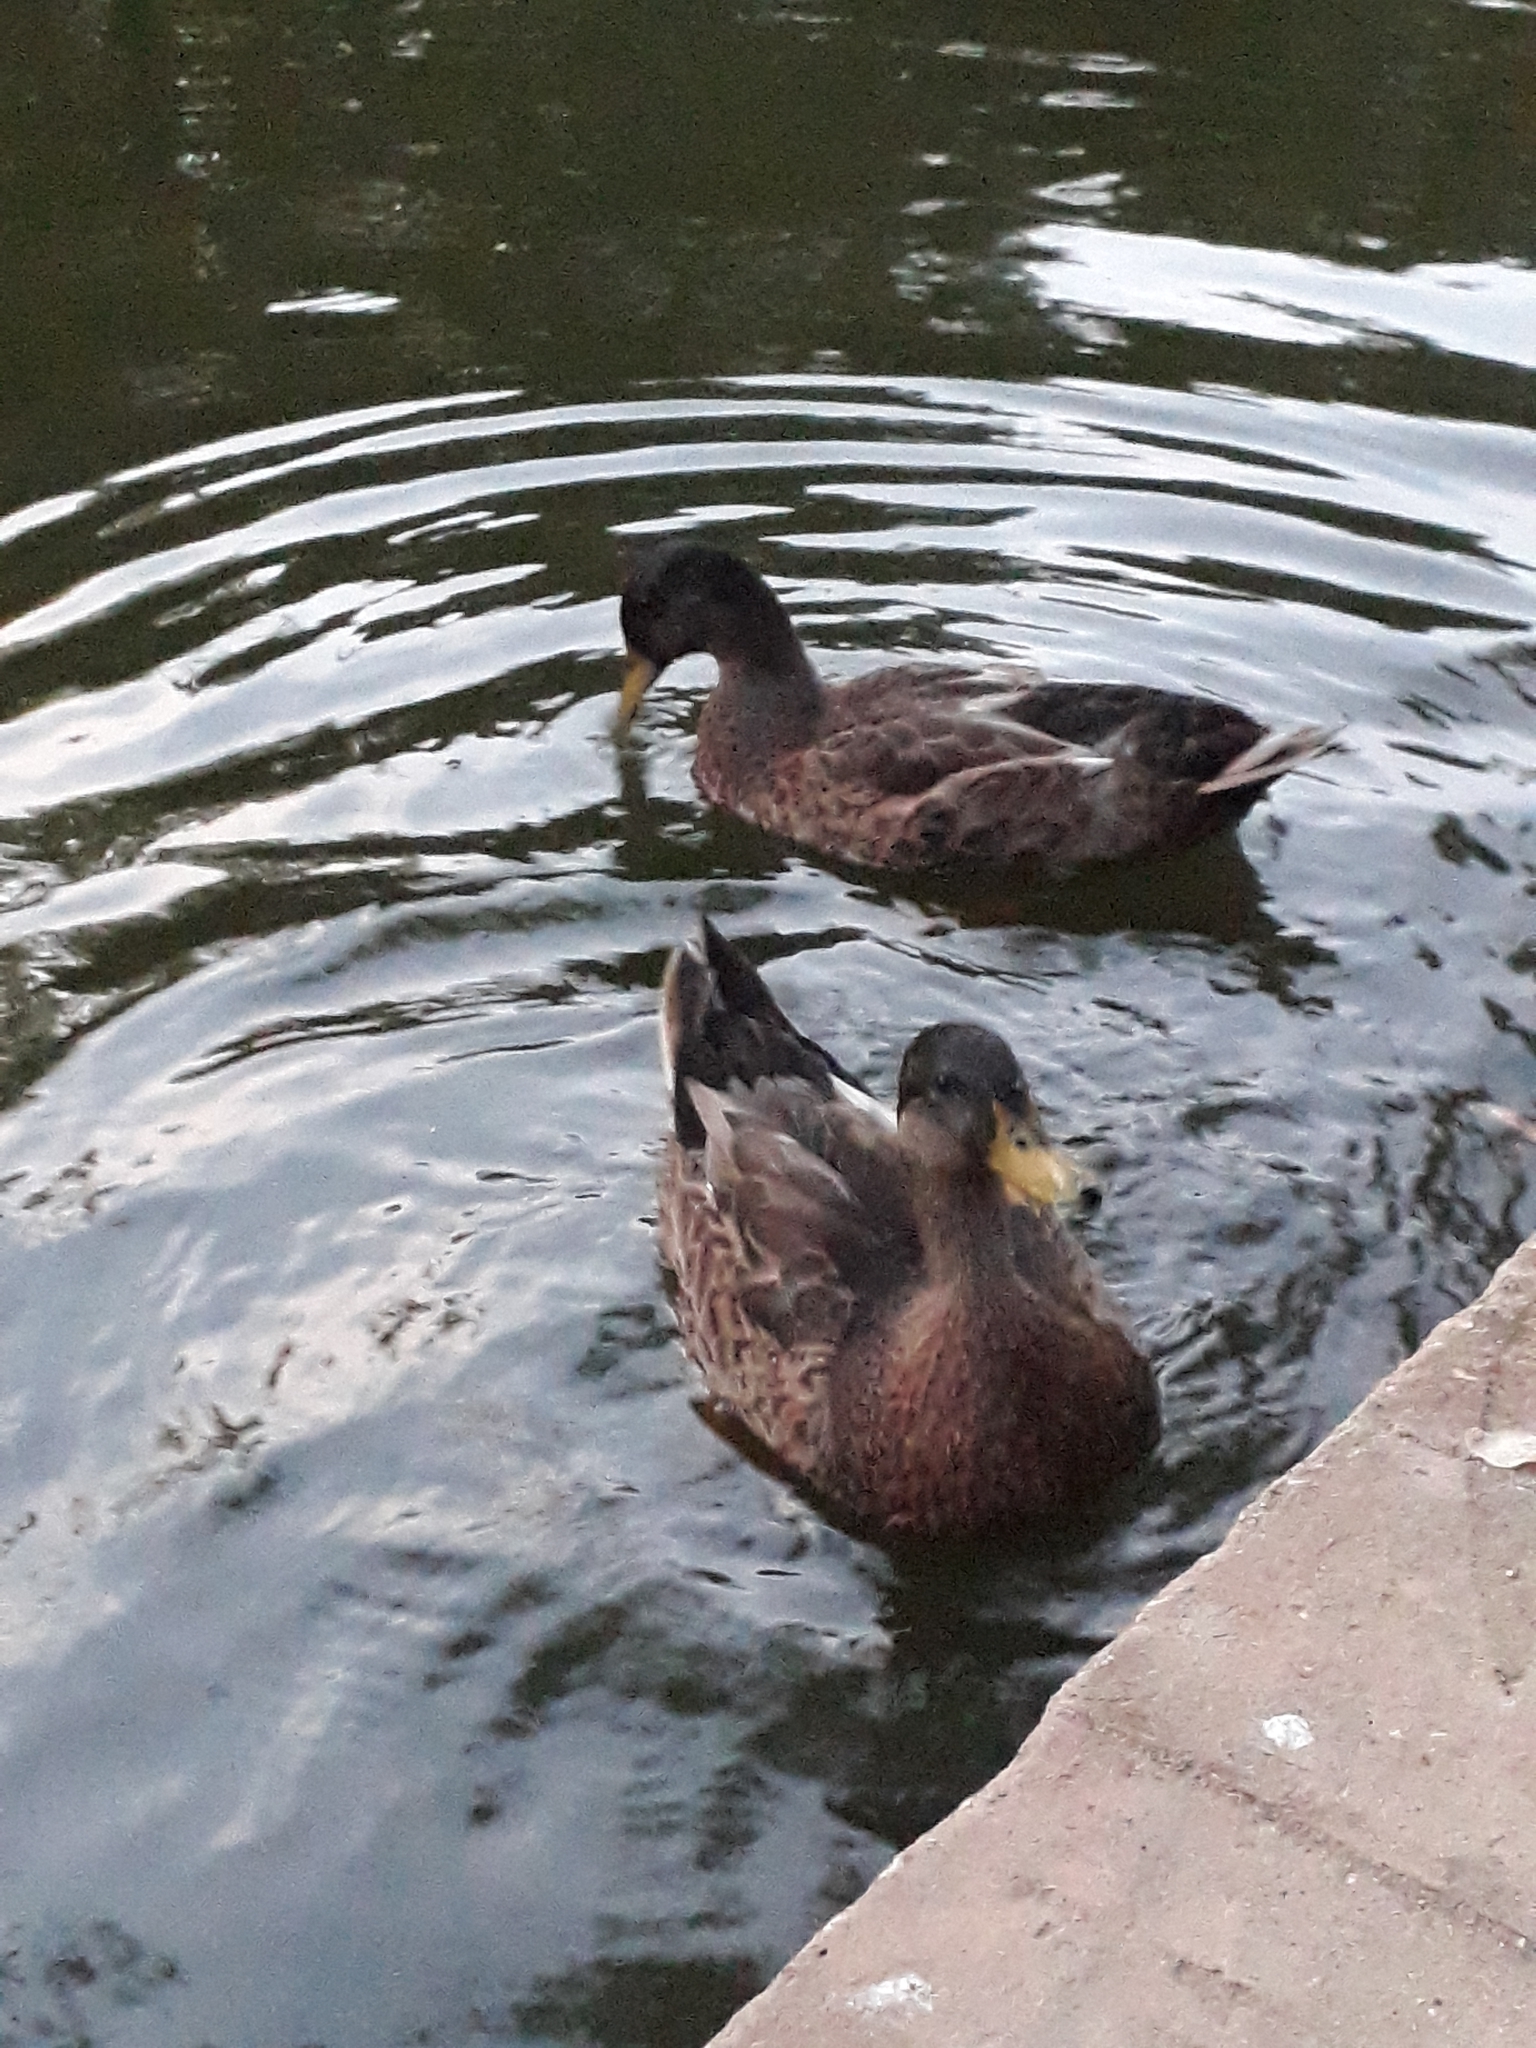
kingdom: Animalia
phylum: Chordata
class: Aves
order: Anseriformes
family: Anatidae
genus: Anas
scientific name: Anas platyrhynchos
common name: Mallard
